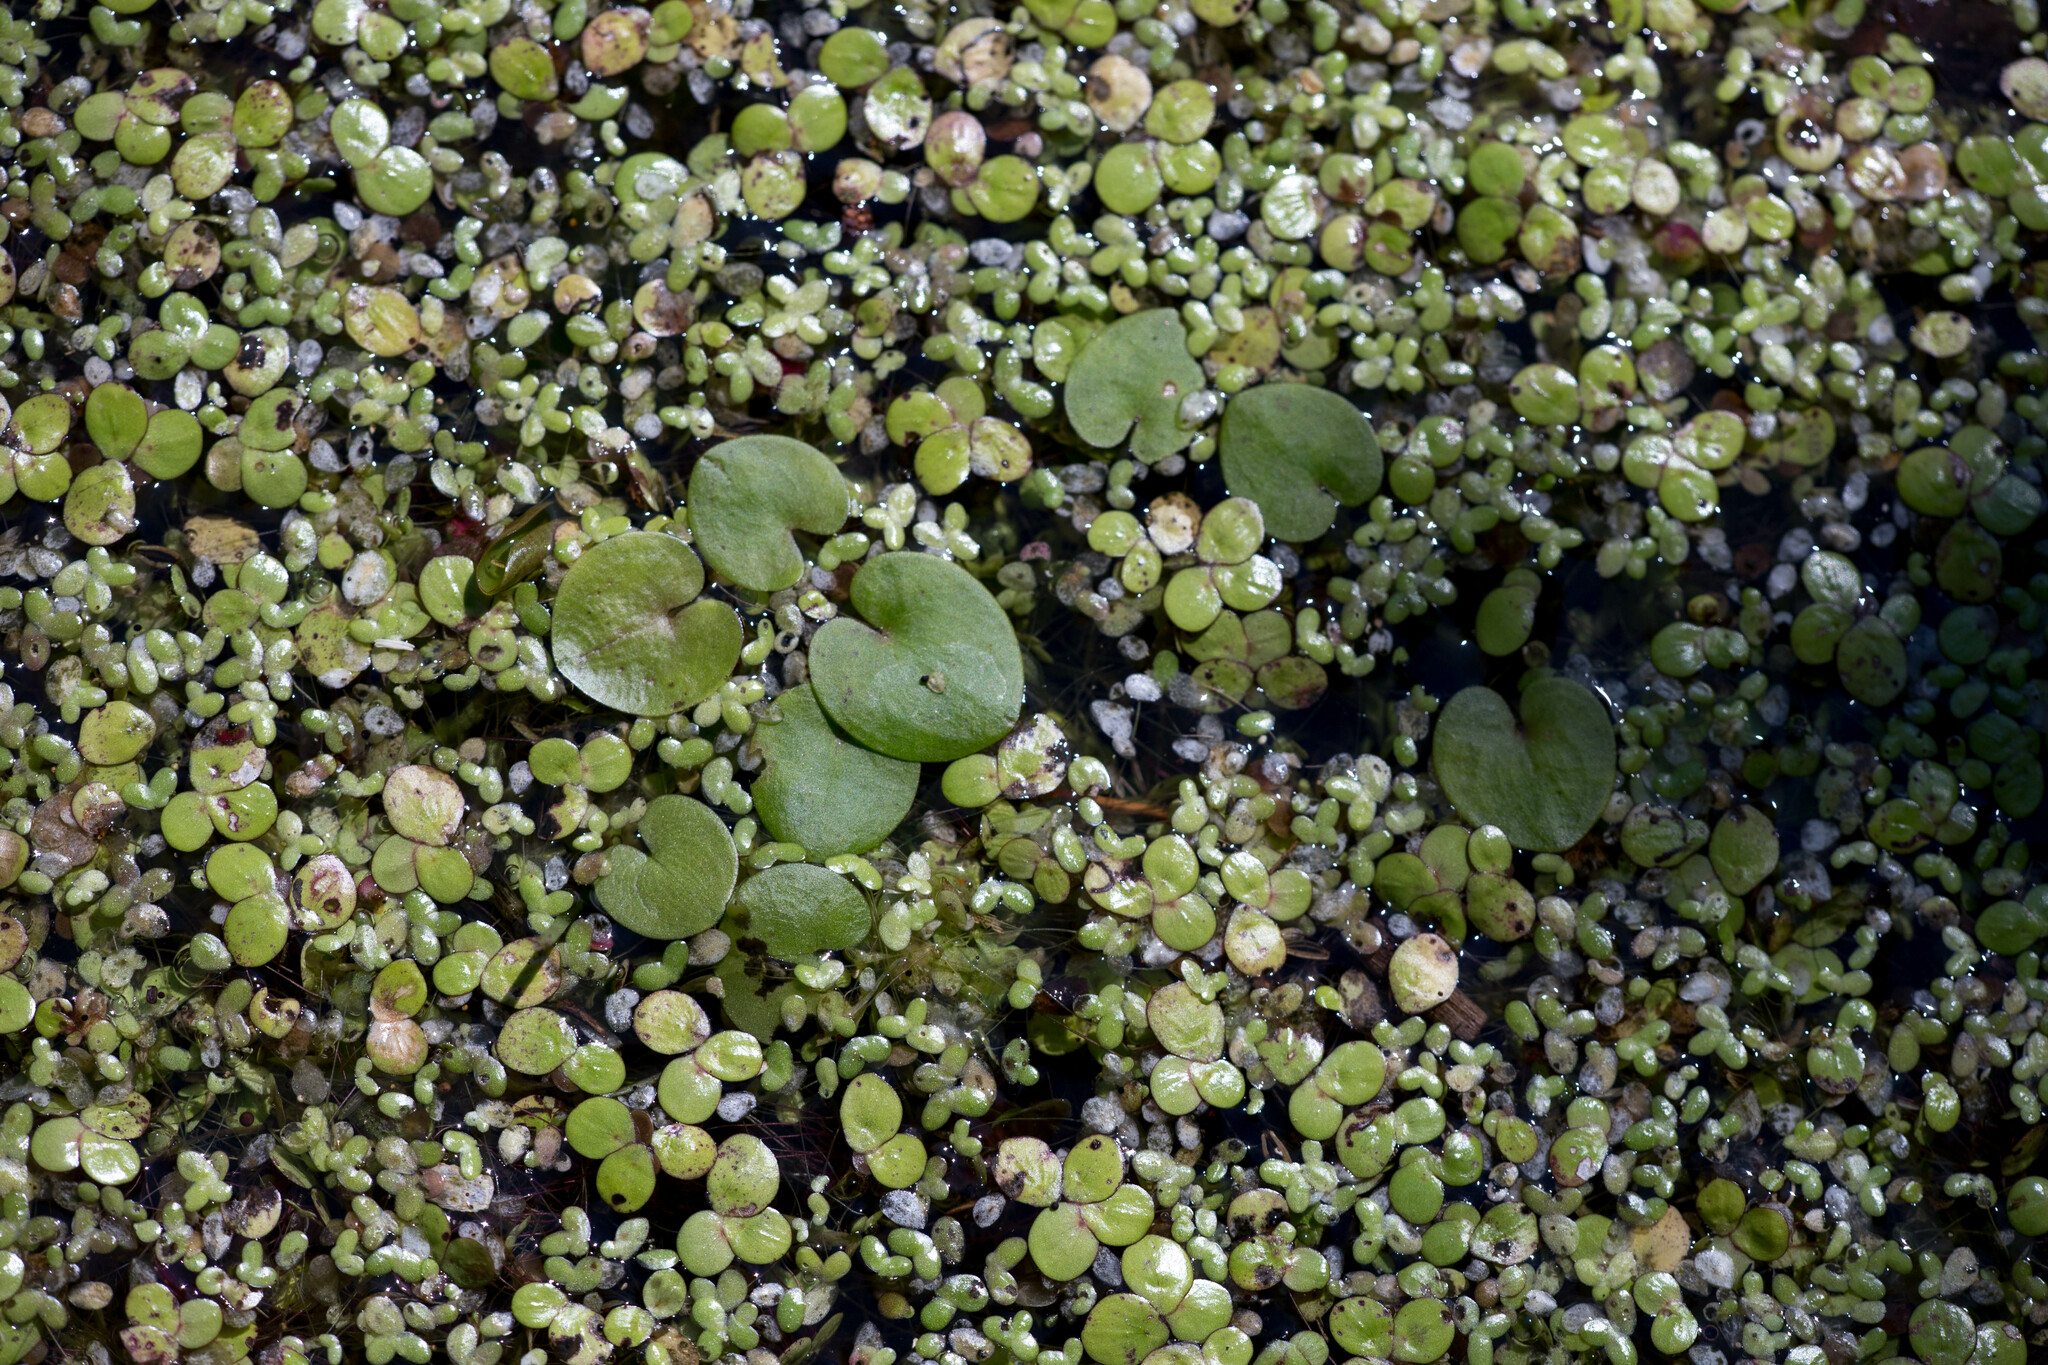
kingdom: Plantae
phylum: Tracheophyta
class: Liliopsida
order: Alismatales
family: Araceae
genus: Spirodela
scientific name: Spirodela polyrhiza
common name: Great duckweed
